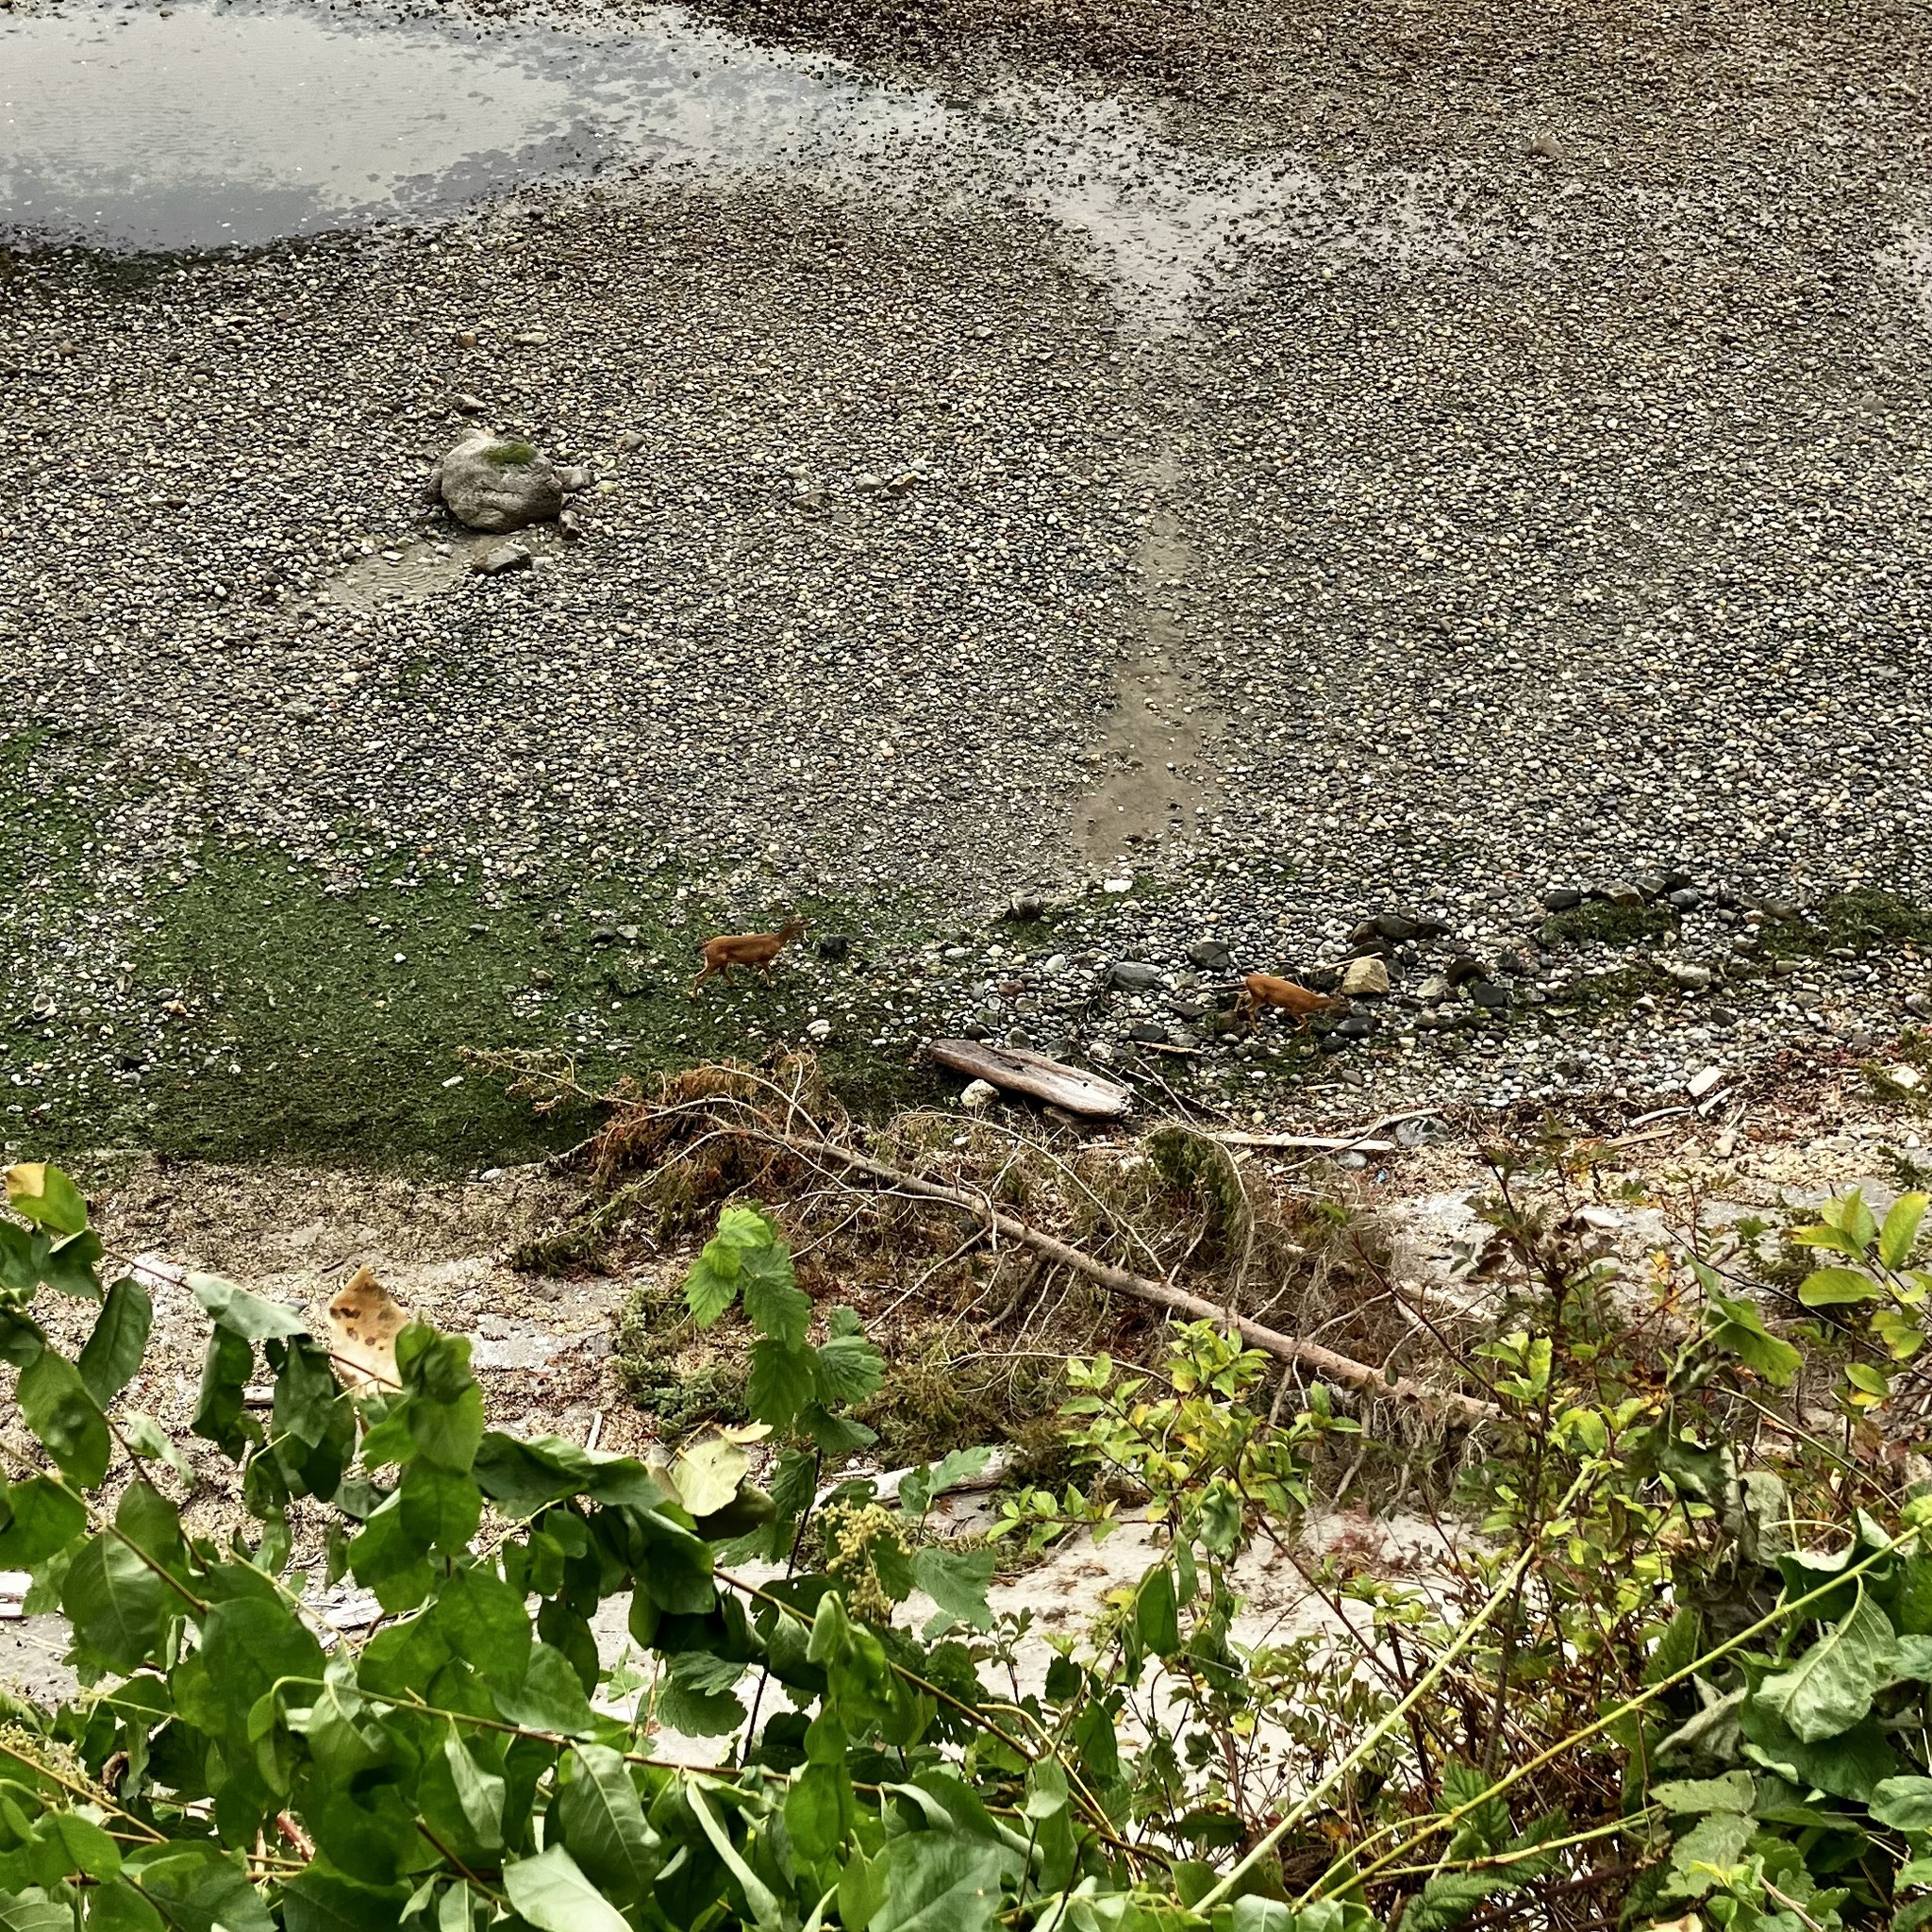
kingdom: Animalia
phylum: Chordata
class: Mammalia
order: Artiodactyla
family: Cervidae
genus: Odocoileus
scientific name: Odocoileus hemionus
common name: Mule deer
